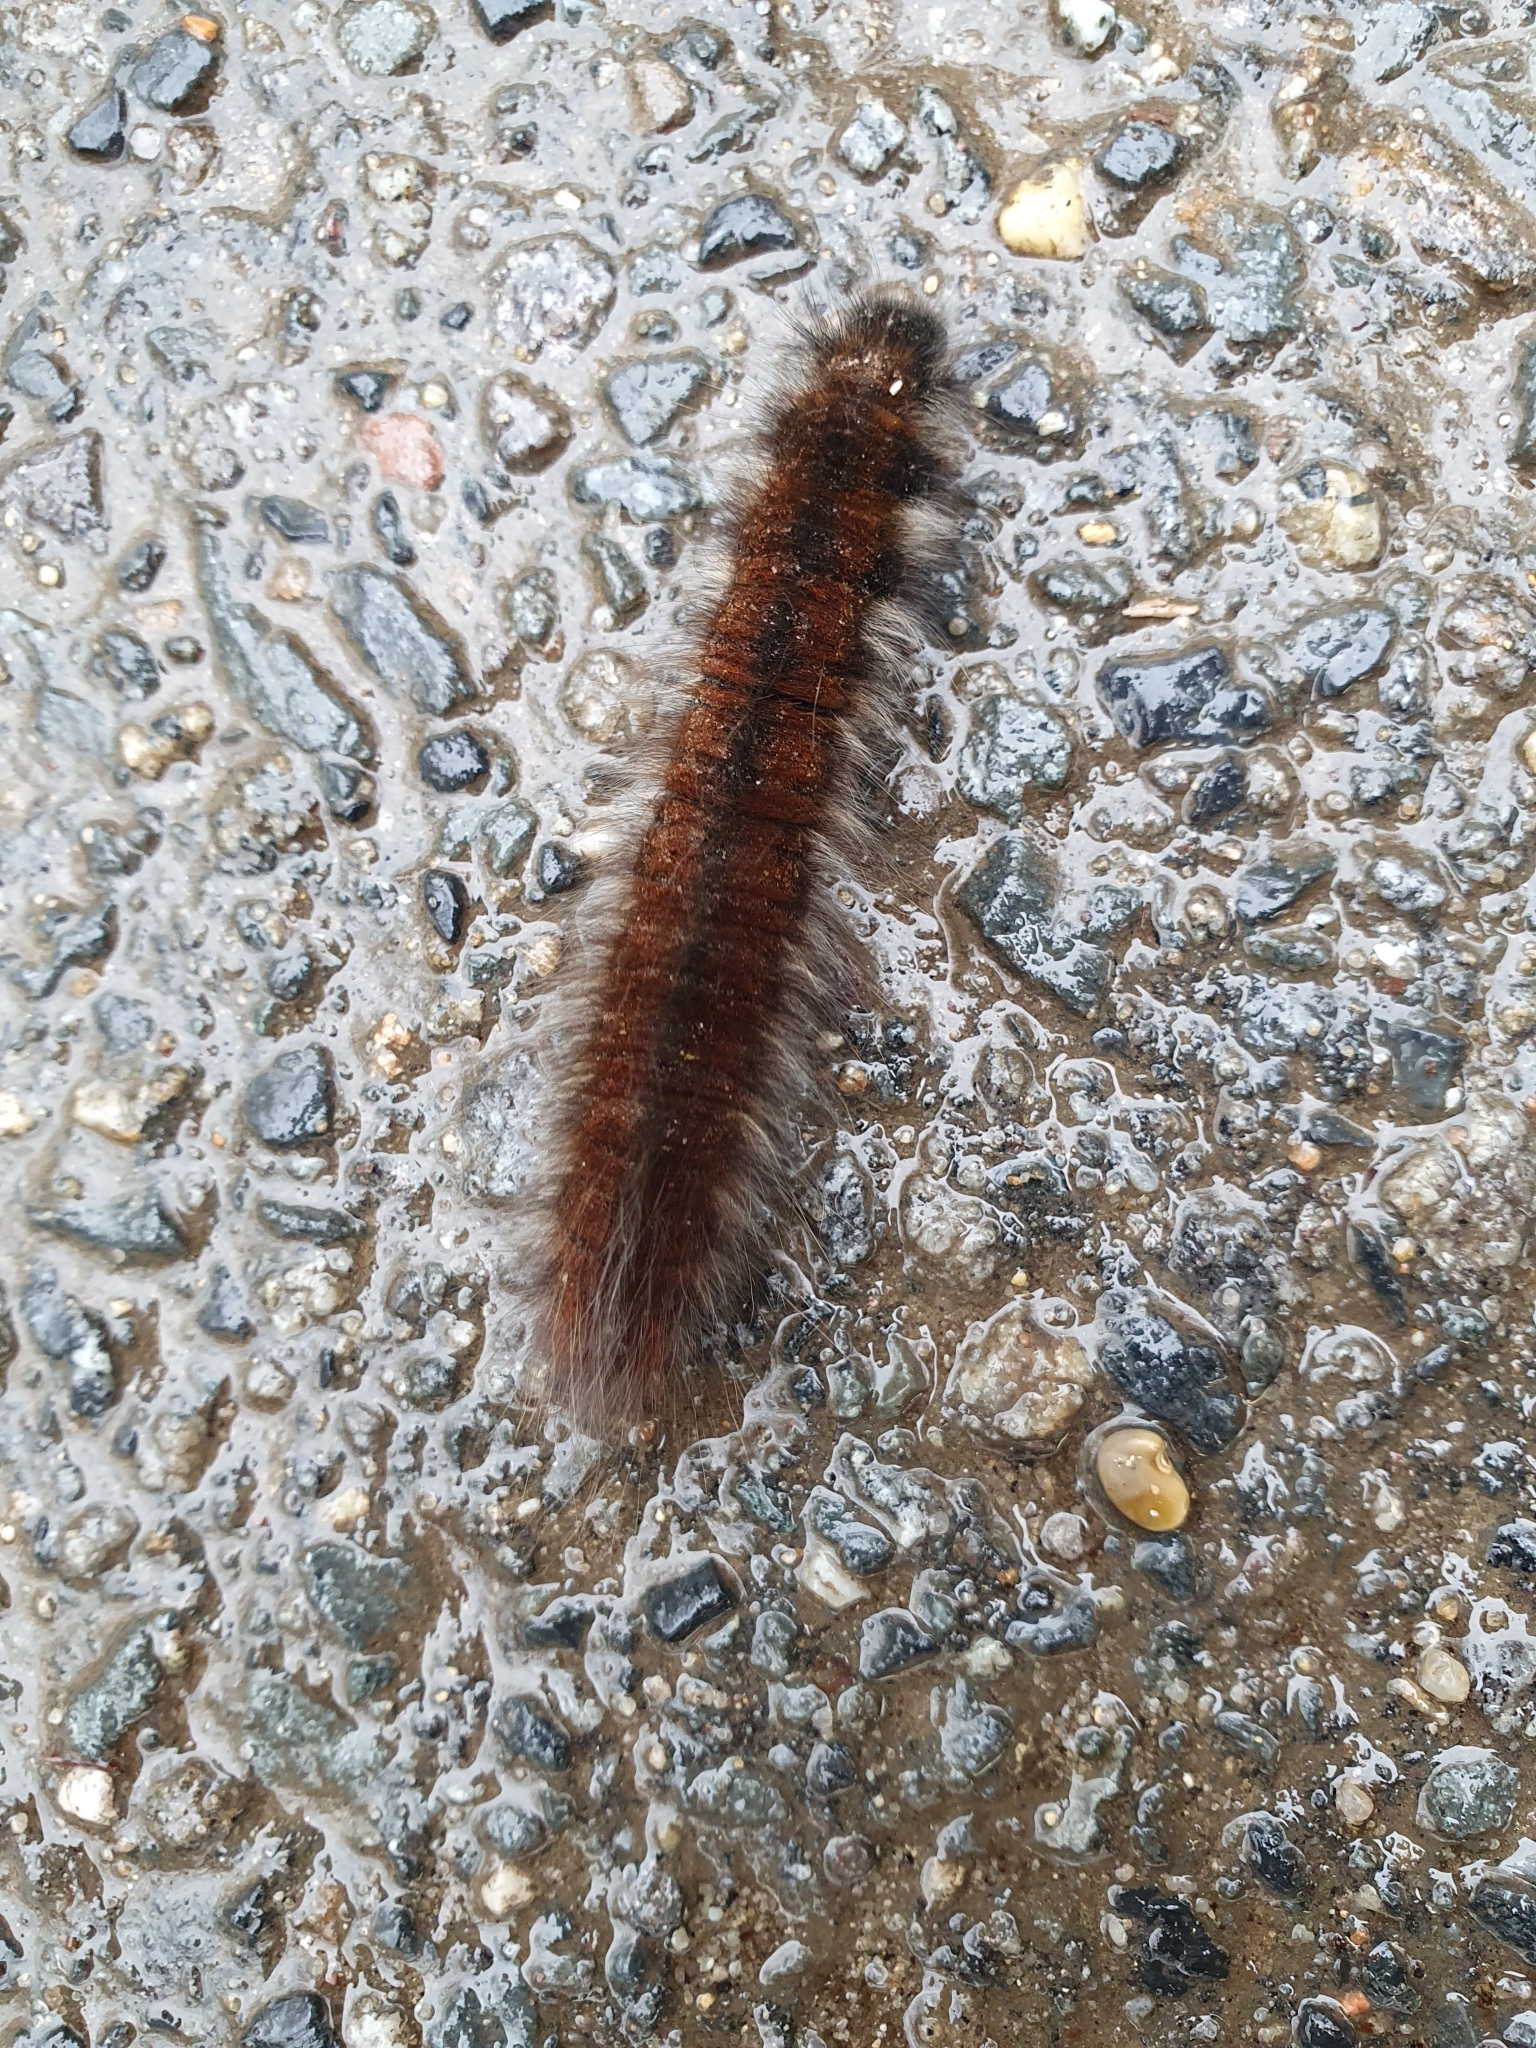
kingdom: Animalia
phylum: Arthropoda
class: Insecta
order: Lepidoptera
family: Lasiocampidae
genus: Macrothylacia
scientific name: Macrothylacia rubi
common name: Fox moth
